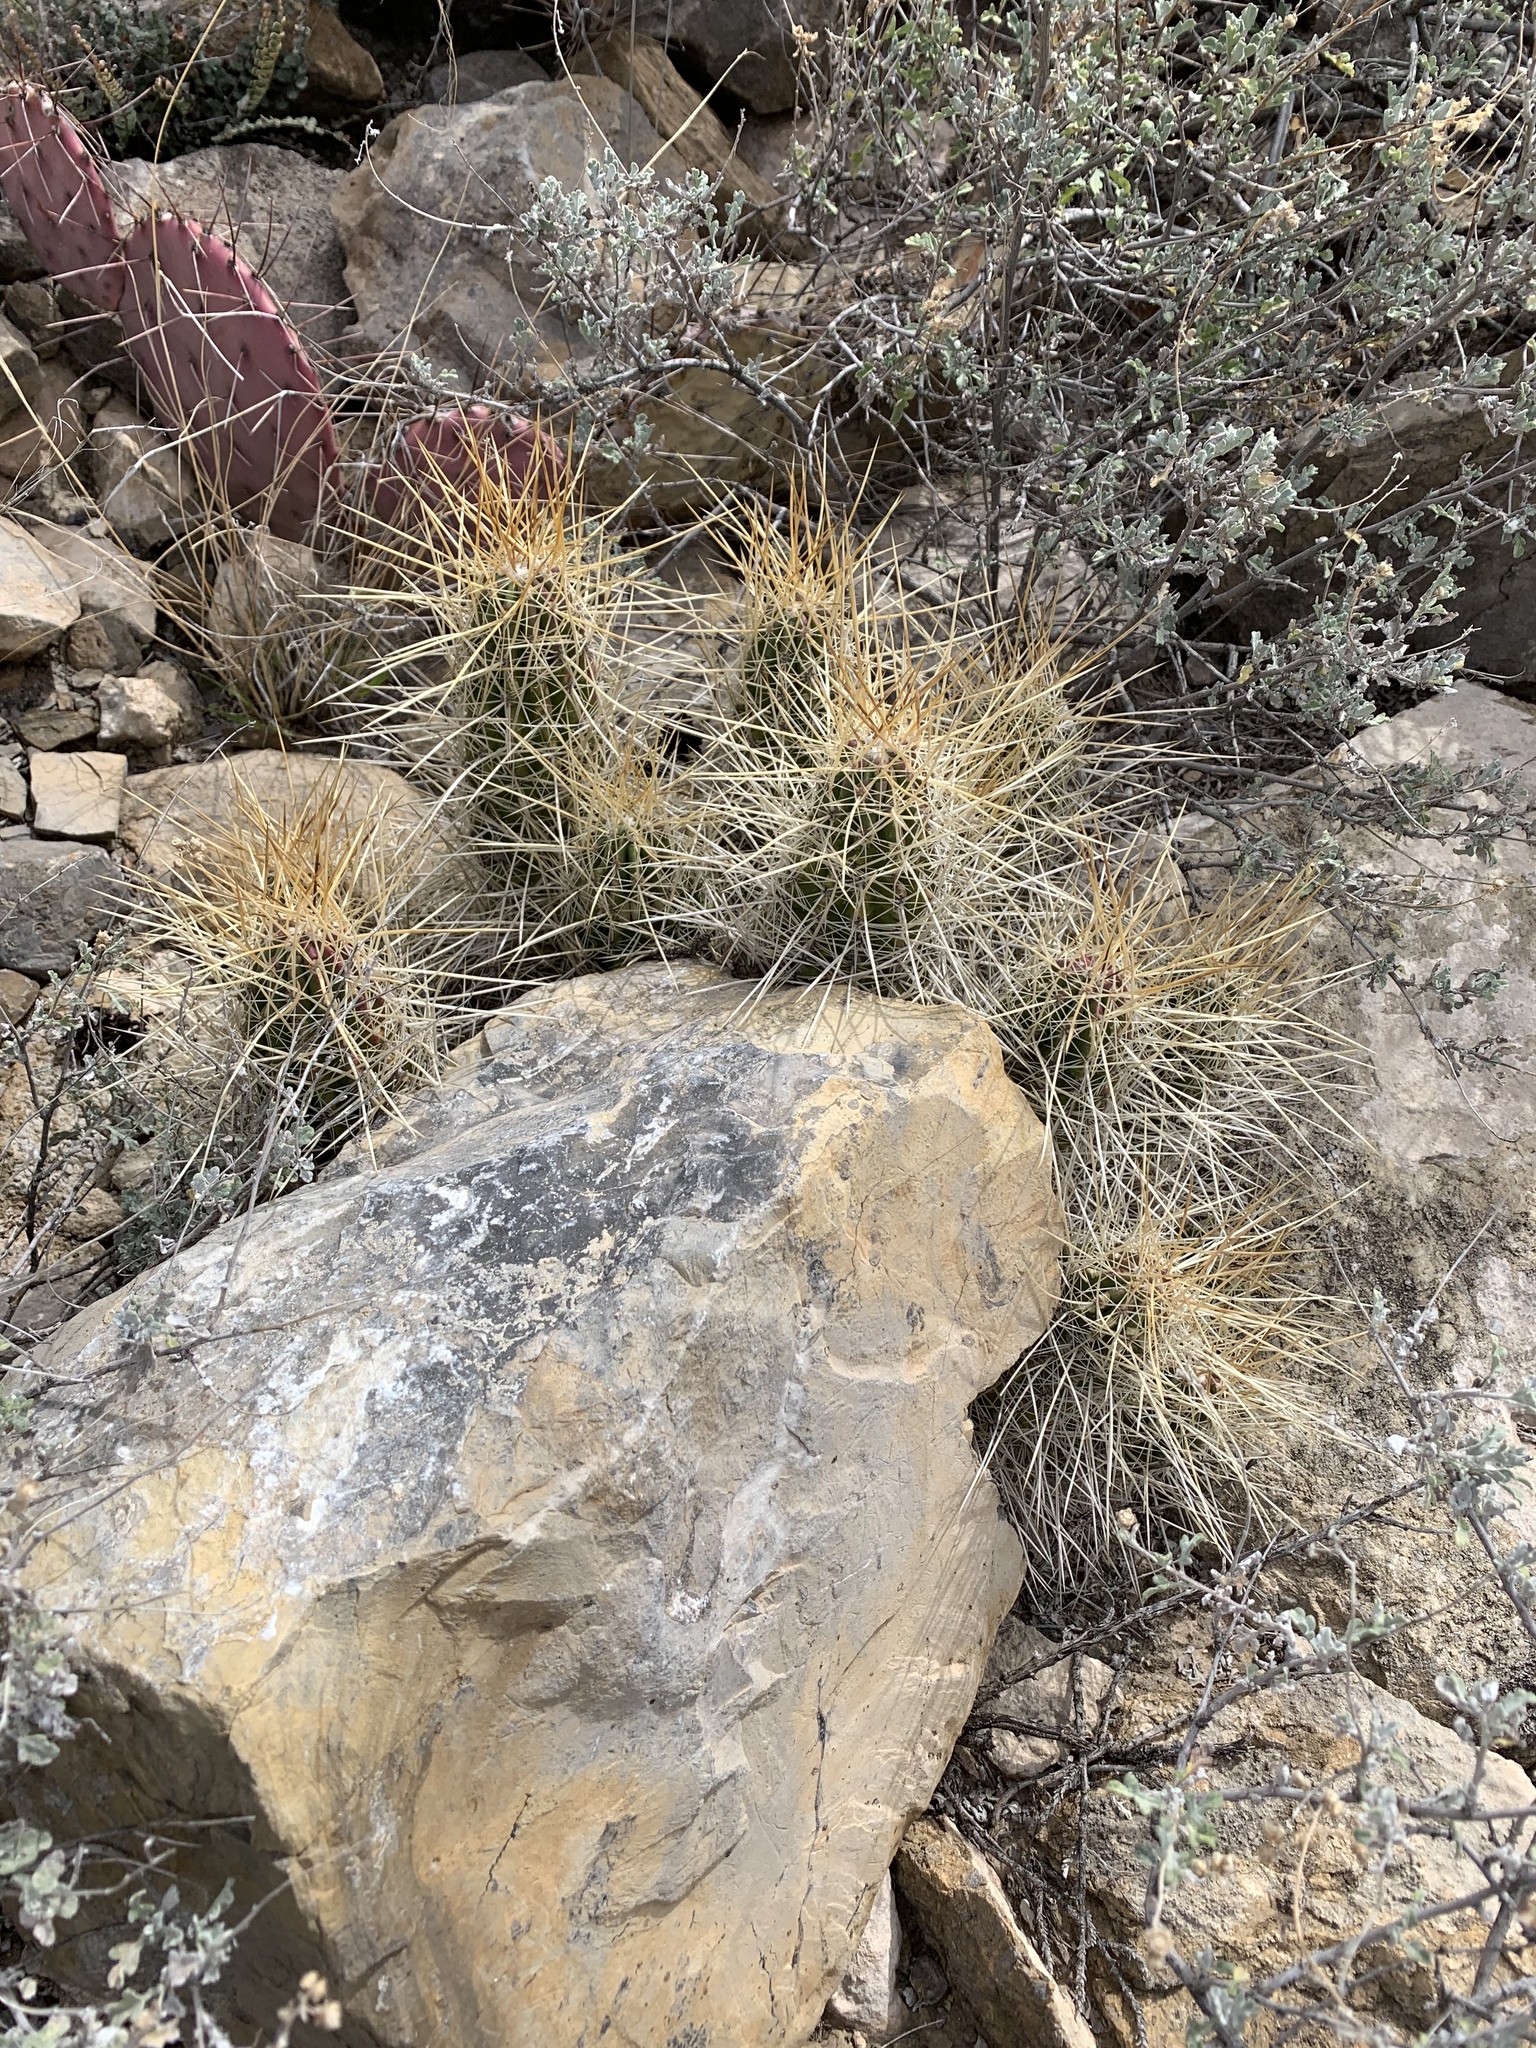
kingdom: Plantae
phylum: Tracheophyta
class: Magnoliopsida
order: Caryophyllales
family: Cactaceae
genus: Echinocereus
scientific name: Echinocereus stramineus
